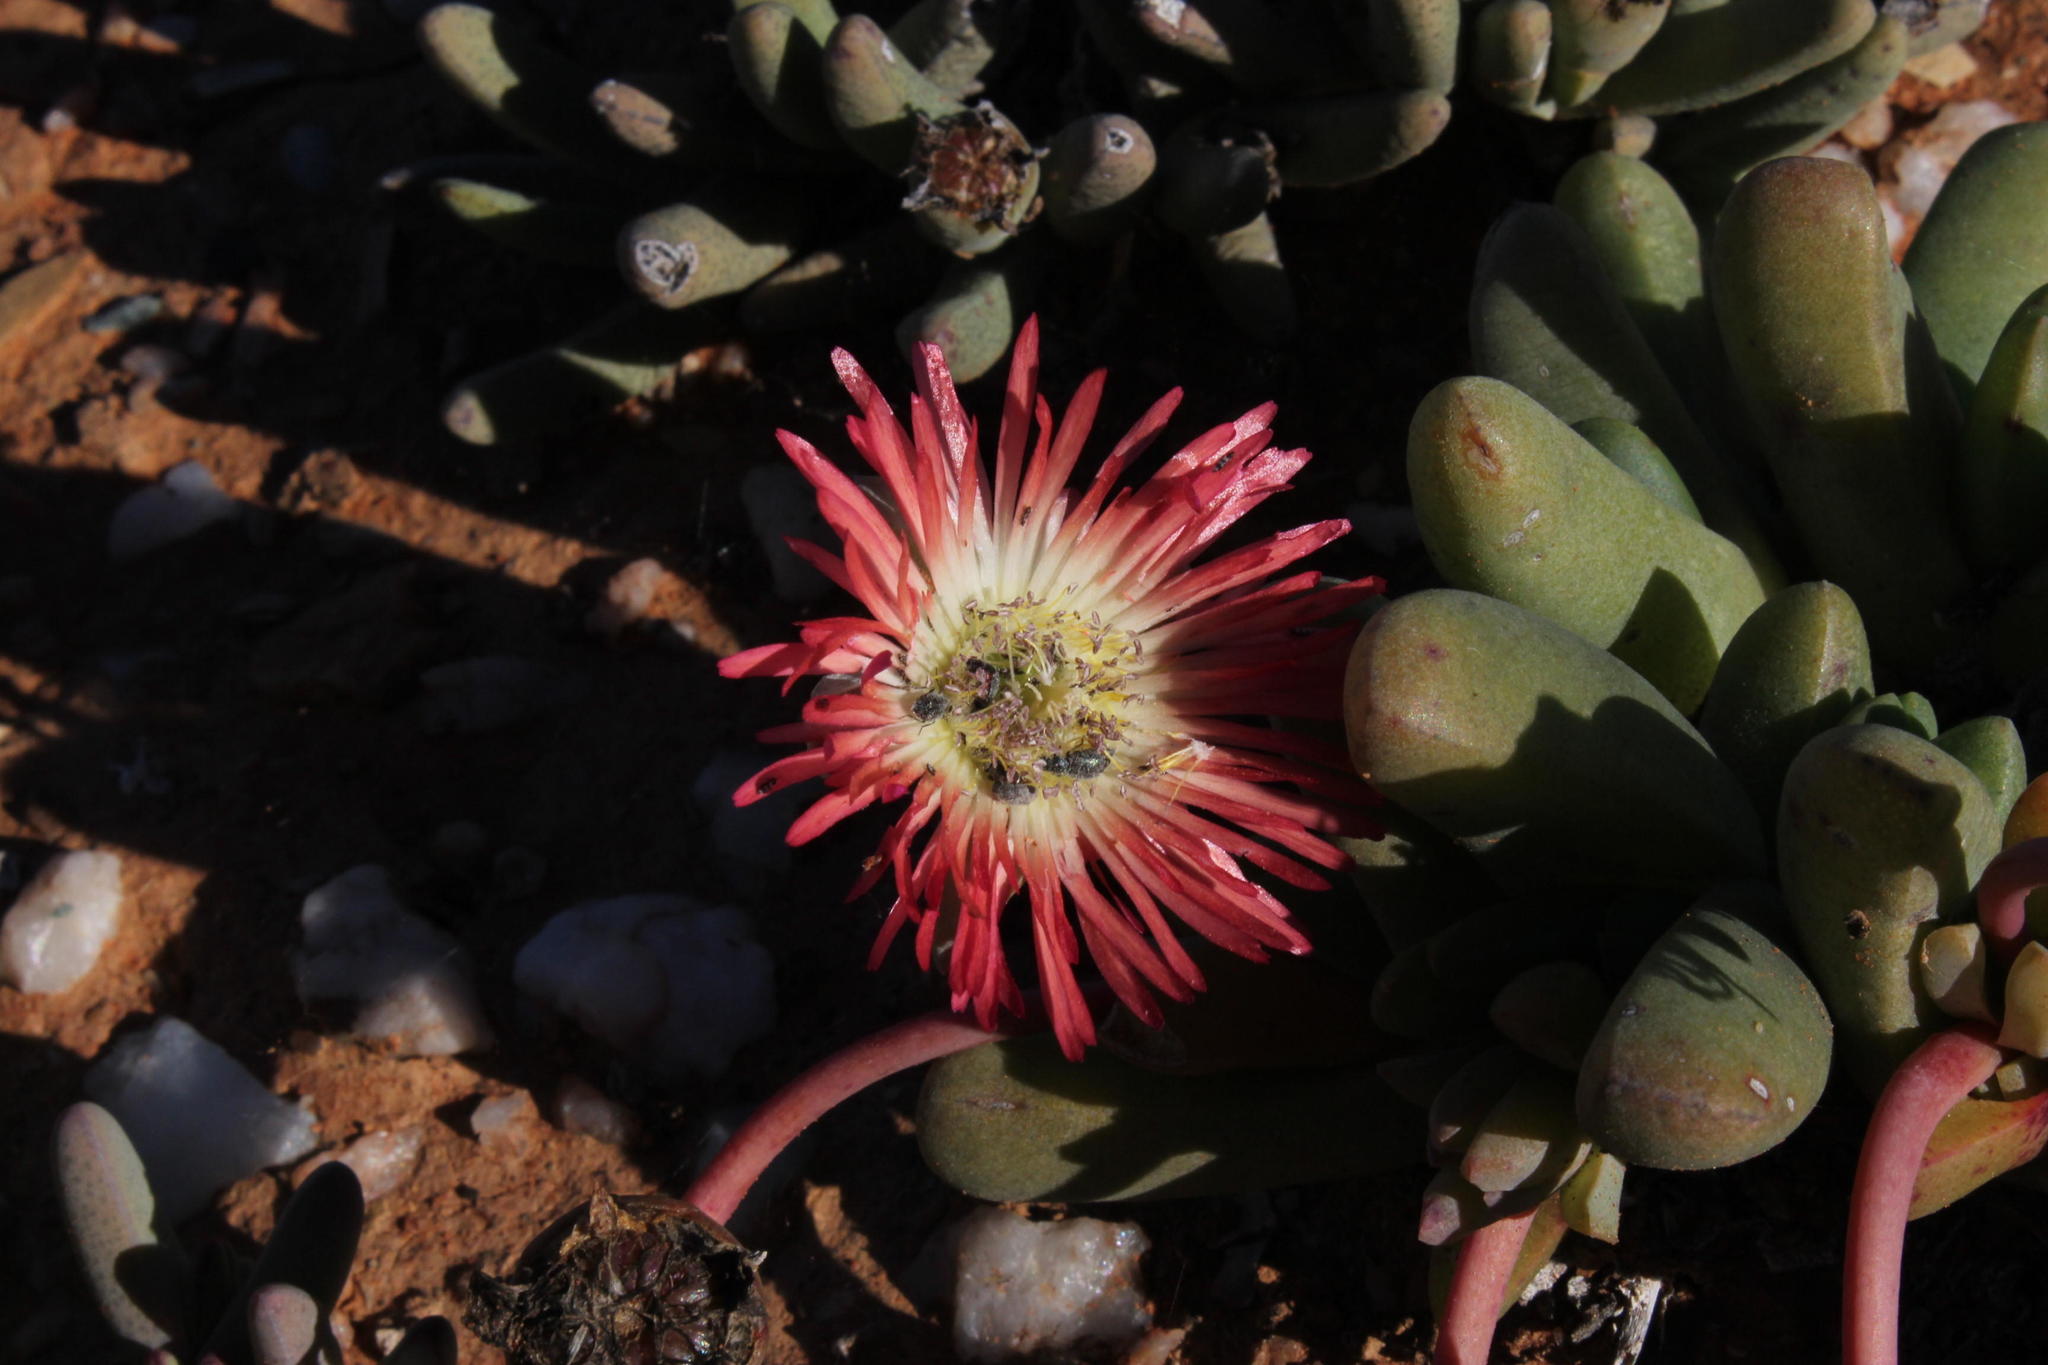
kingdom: Plantae
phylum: Tracheophyta
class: Magnoliopsida
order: Caryophyllales
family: Aizoaceae
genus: Cephalophyllum
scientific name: Cephalophyllum spissum
